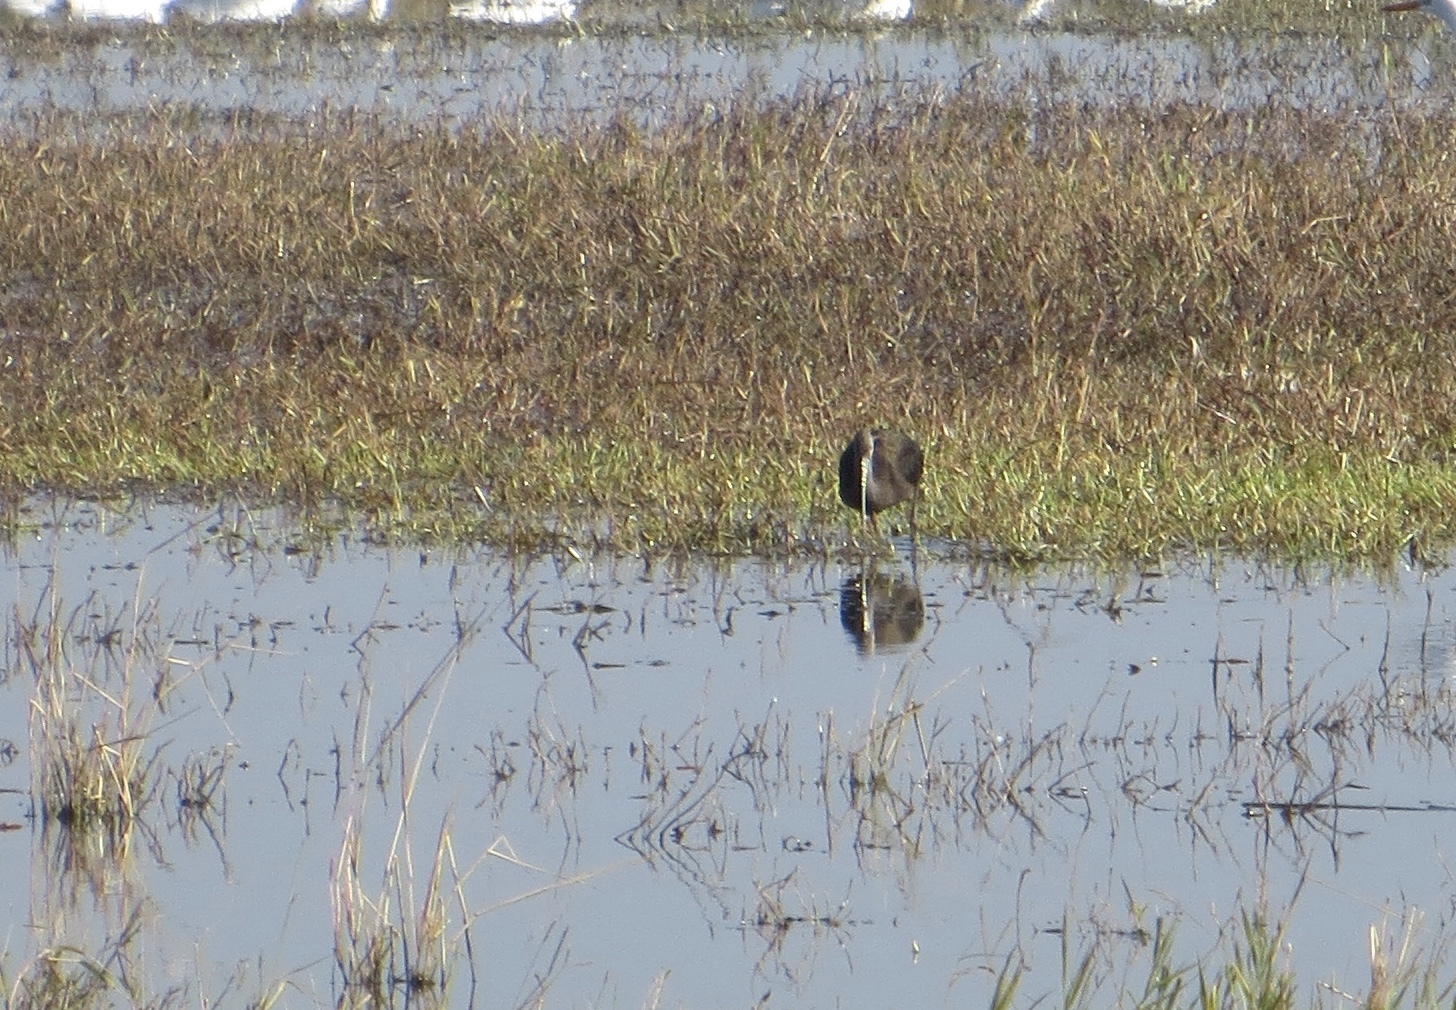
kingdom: Animalia
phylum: Chordata
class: Aves
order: Pelecaniformes
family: Threskiornithidae
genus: Plegadis
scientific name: Plegadis chihi
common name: White-faced ibis
